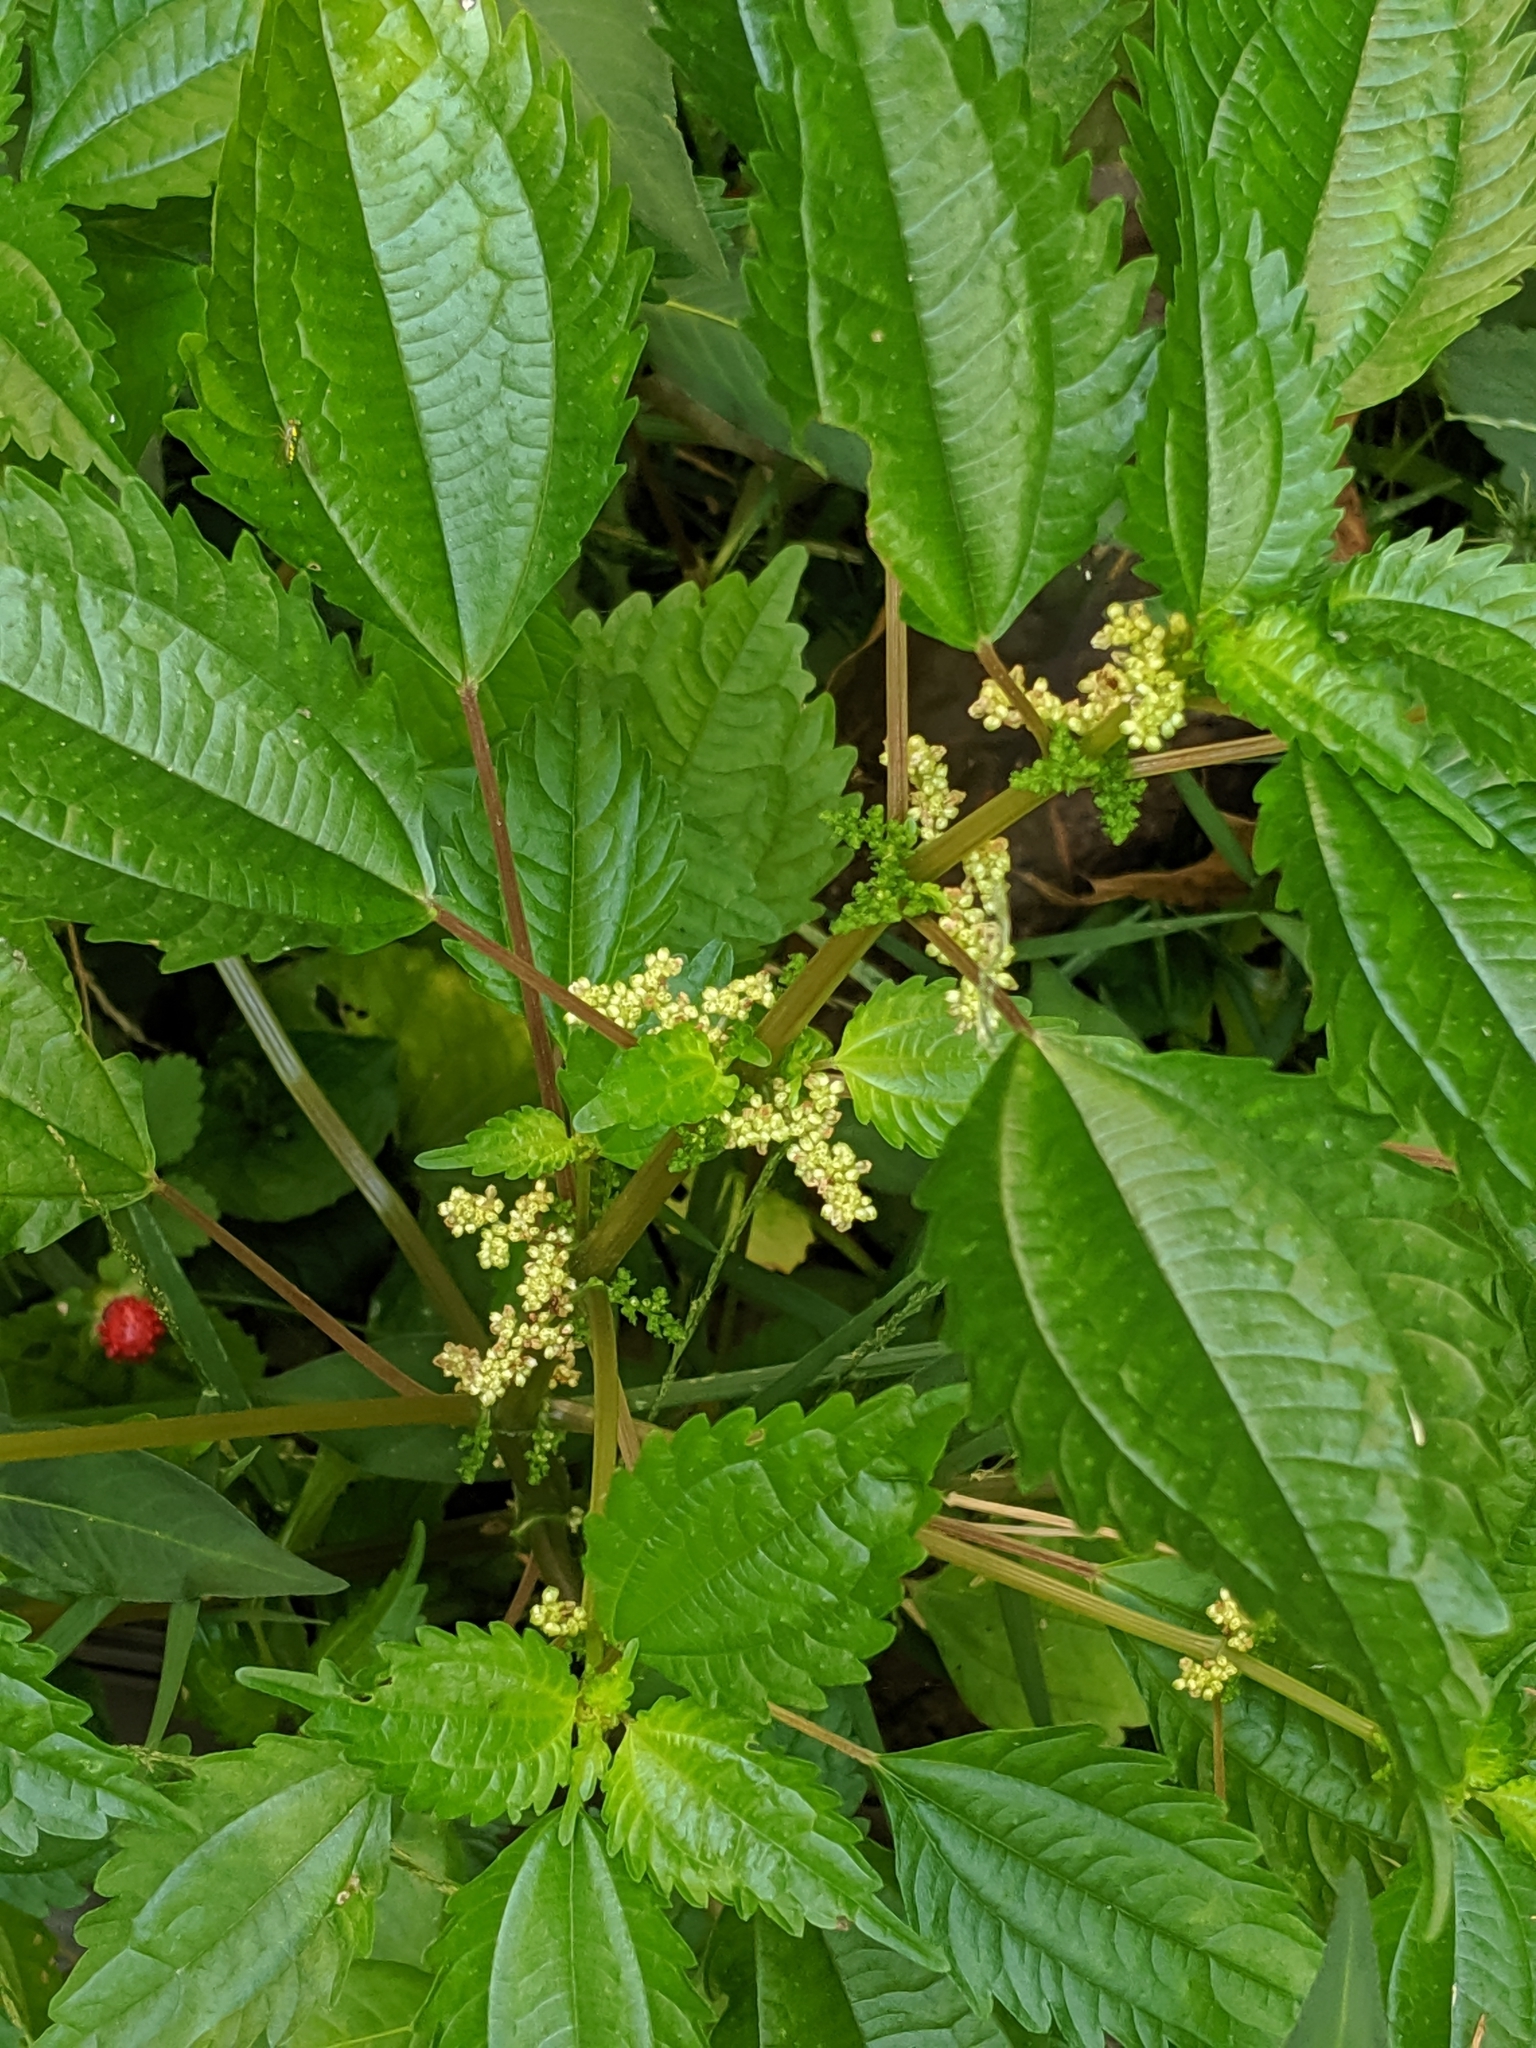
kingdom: Plantae
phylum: Tracheophyta
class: Magnoliopsida
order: Rosales
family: Urticaceae
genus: Pilea
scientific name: Pilea pumila
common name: Clearweed
